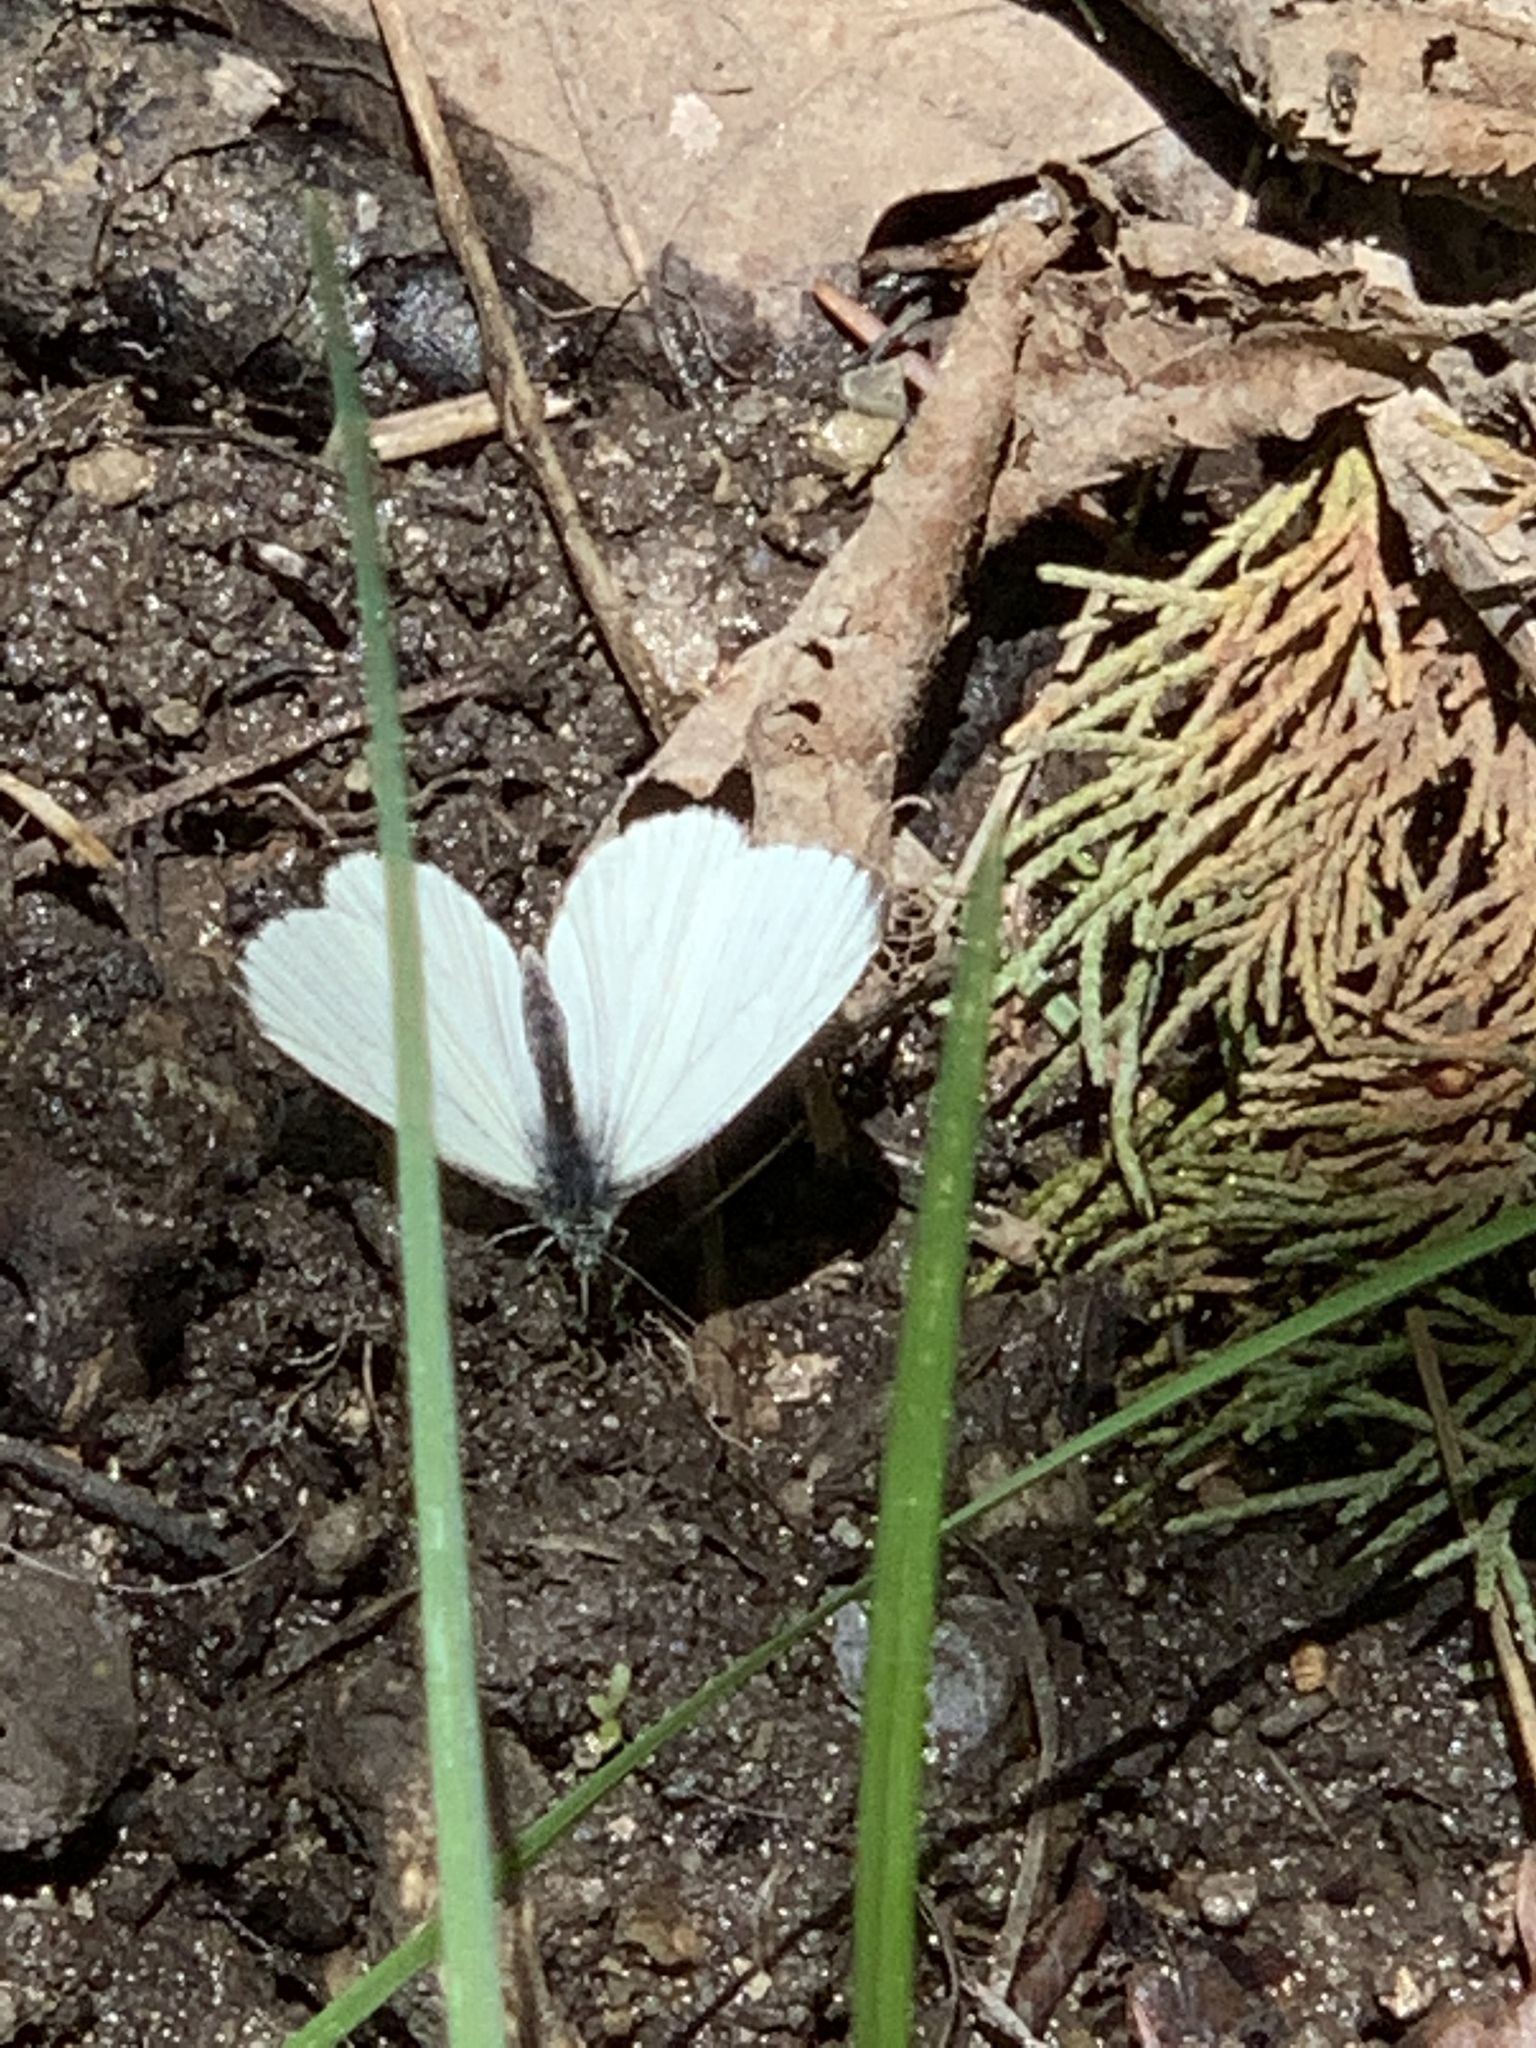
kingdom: Animalia
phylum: Arthropoda
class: Insecta
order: Lepidoptera
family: Pieridae
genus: Pieris
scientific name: Pieris marginalis
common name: Margined white
